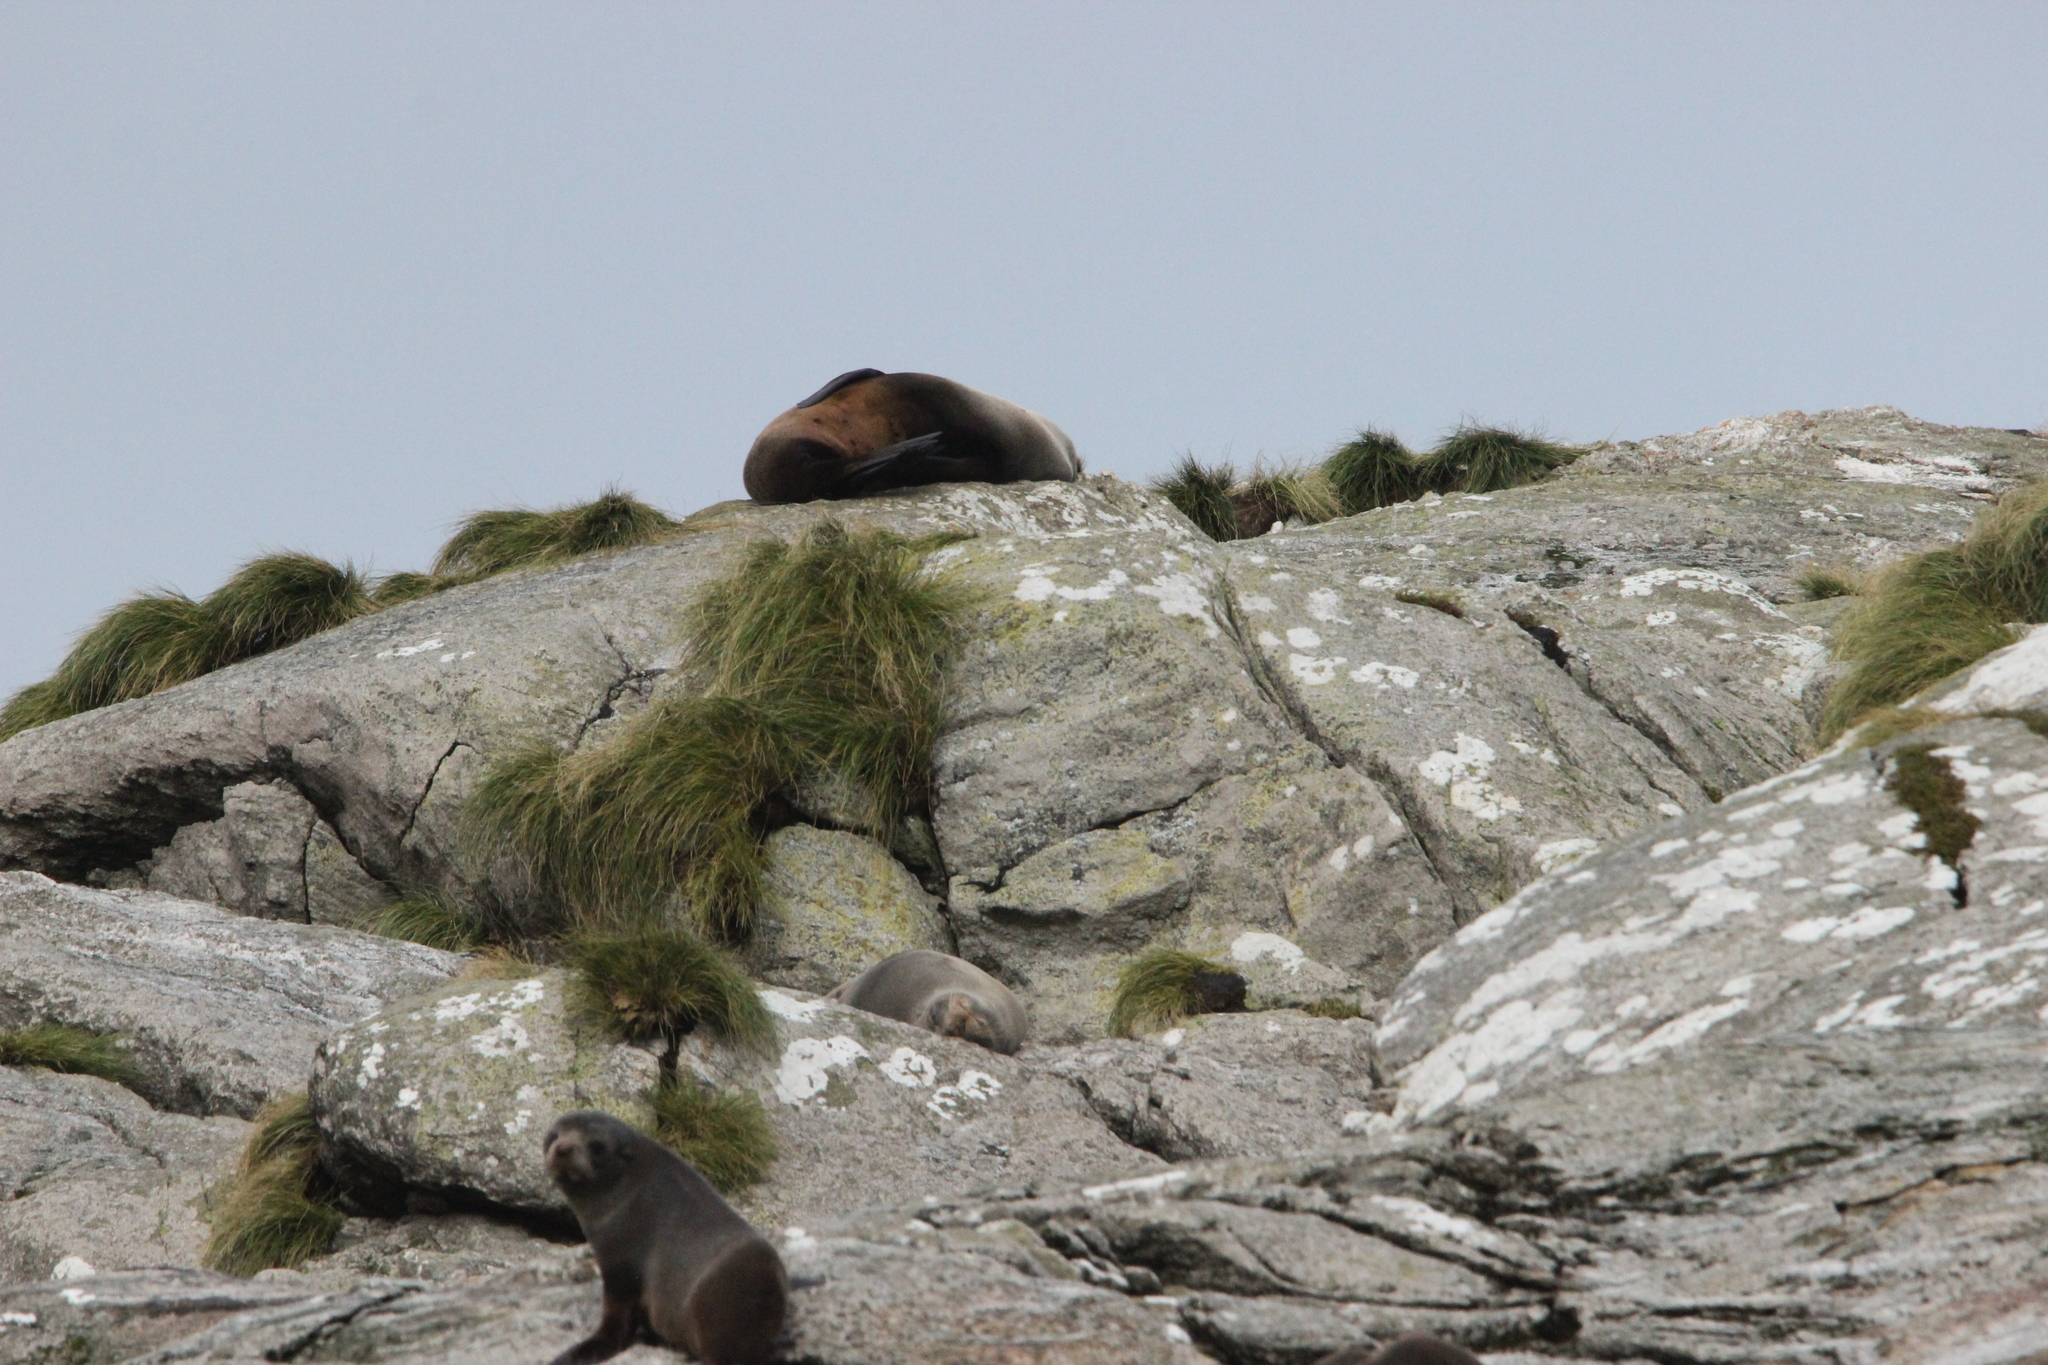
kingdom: Animalia
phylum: Chordata
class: Mammalia
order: Carnivora
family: Otariidae
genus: Arctocephalus
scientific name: Arctocephalus forsteri
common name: New zealand fur seal
